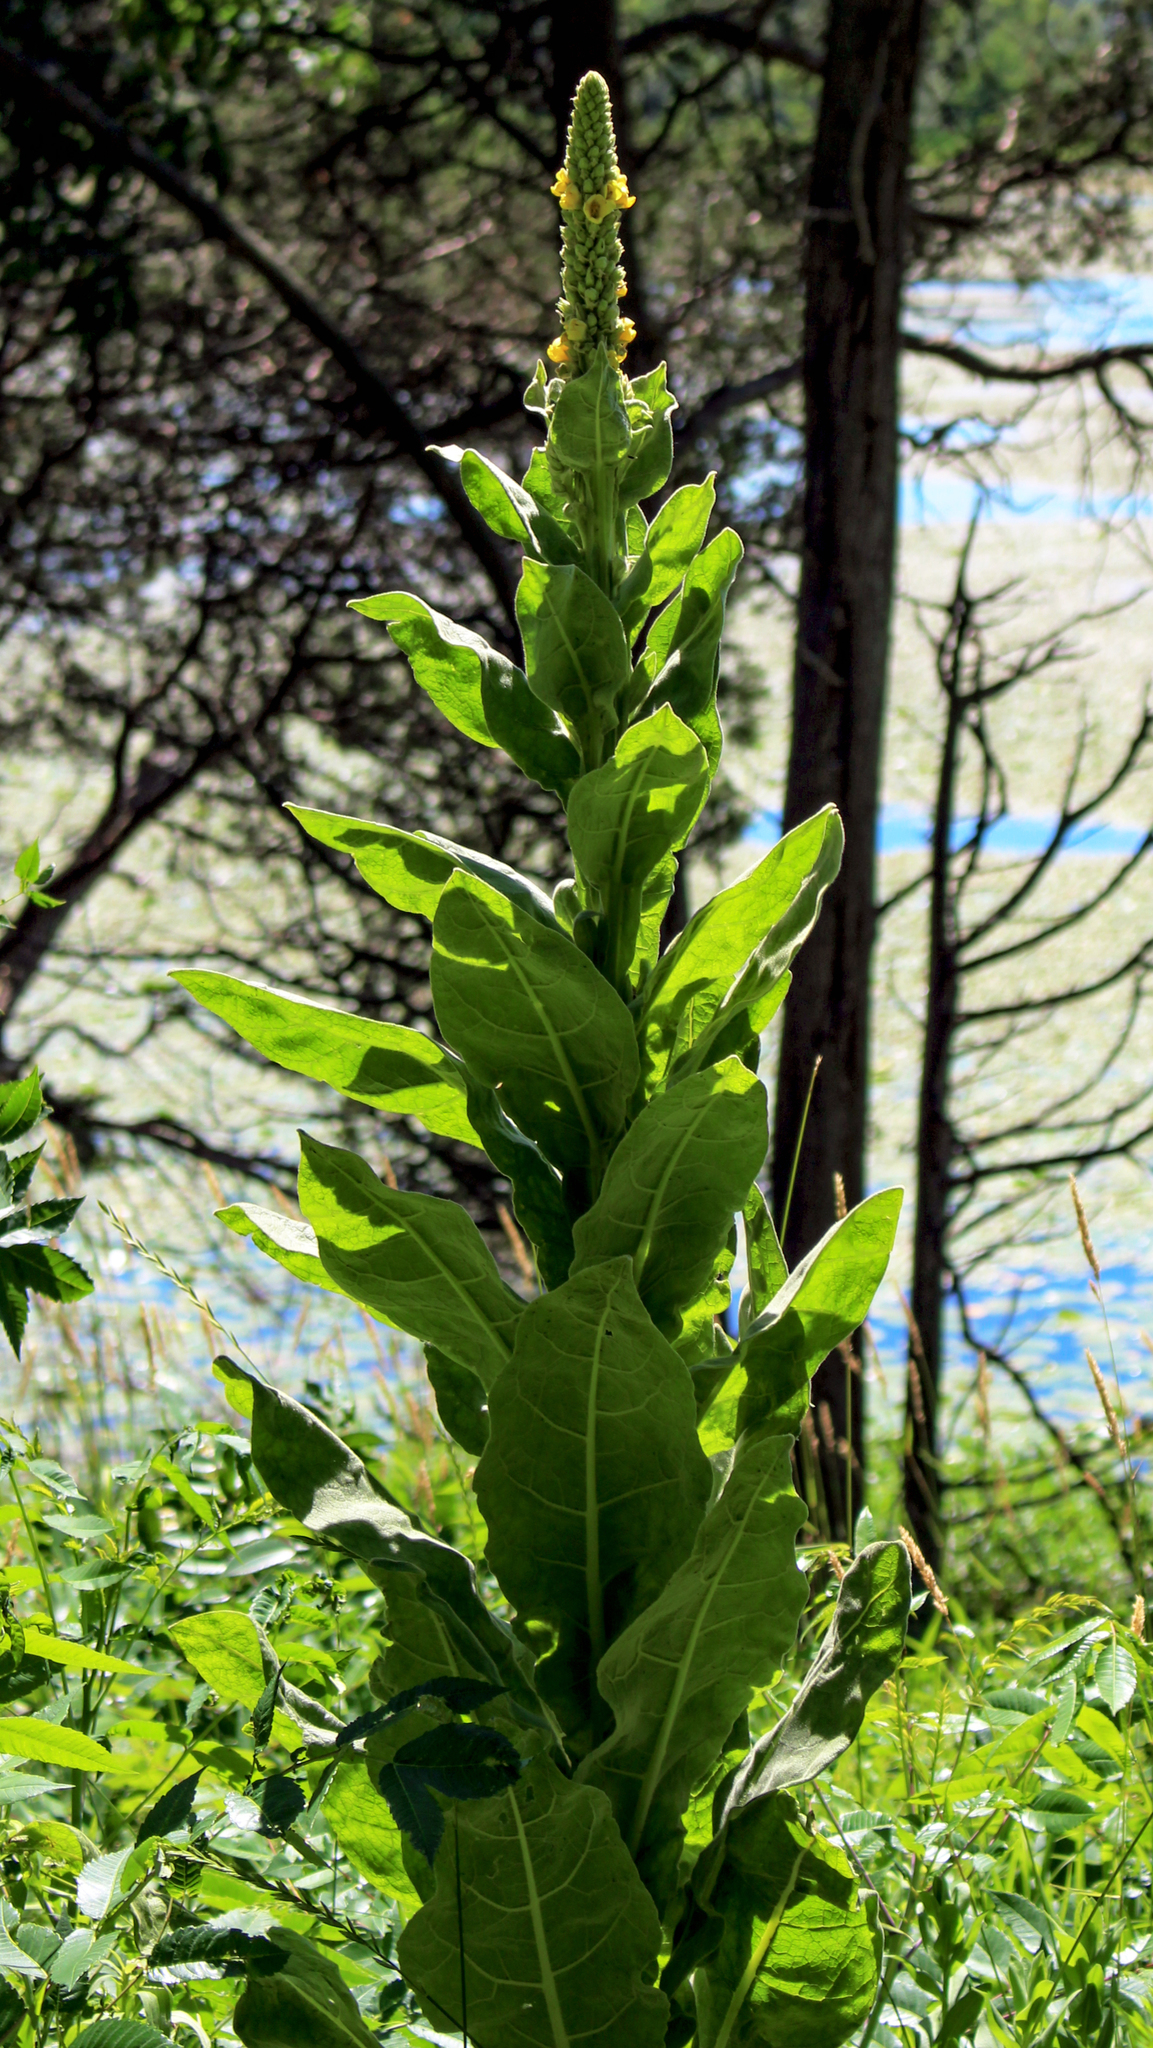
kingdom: Plantae
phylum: Tracheophyta
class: Magnoliopsida
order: Lamiales
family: Scrophulariaceae
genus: Verbascum
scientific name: Verbascum thapsus
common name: Common mullein
